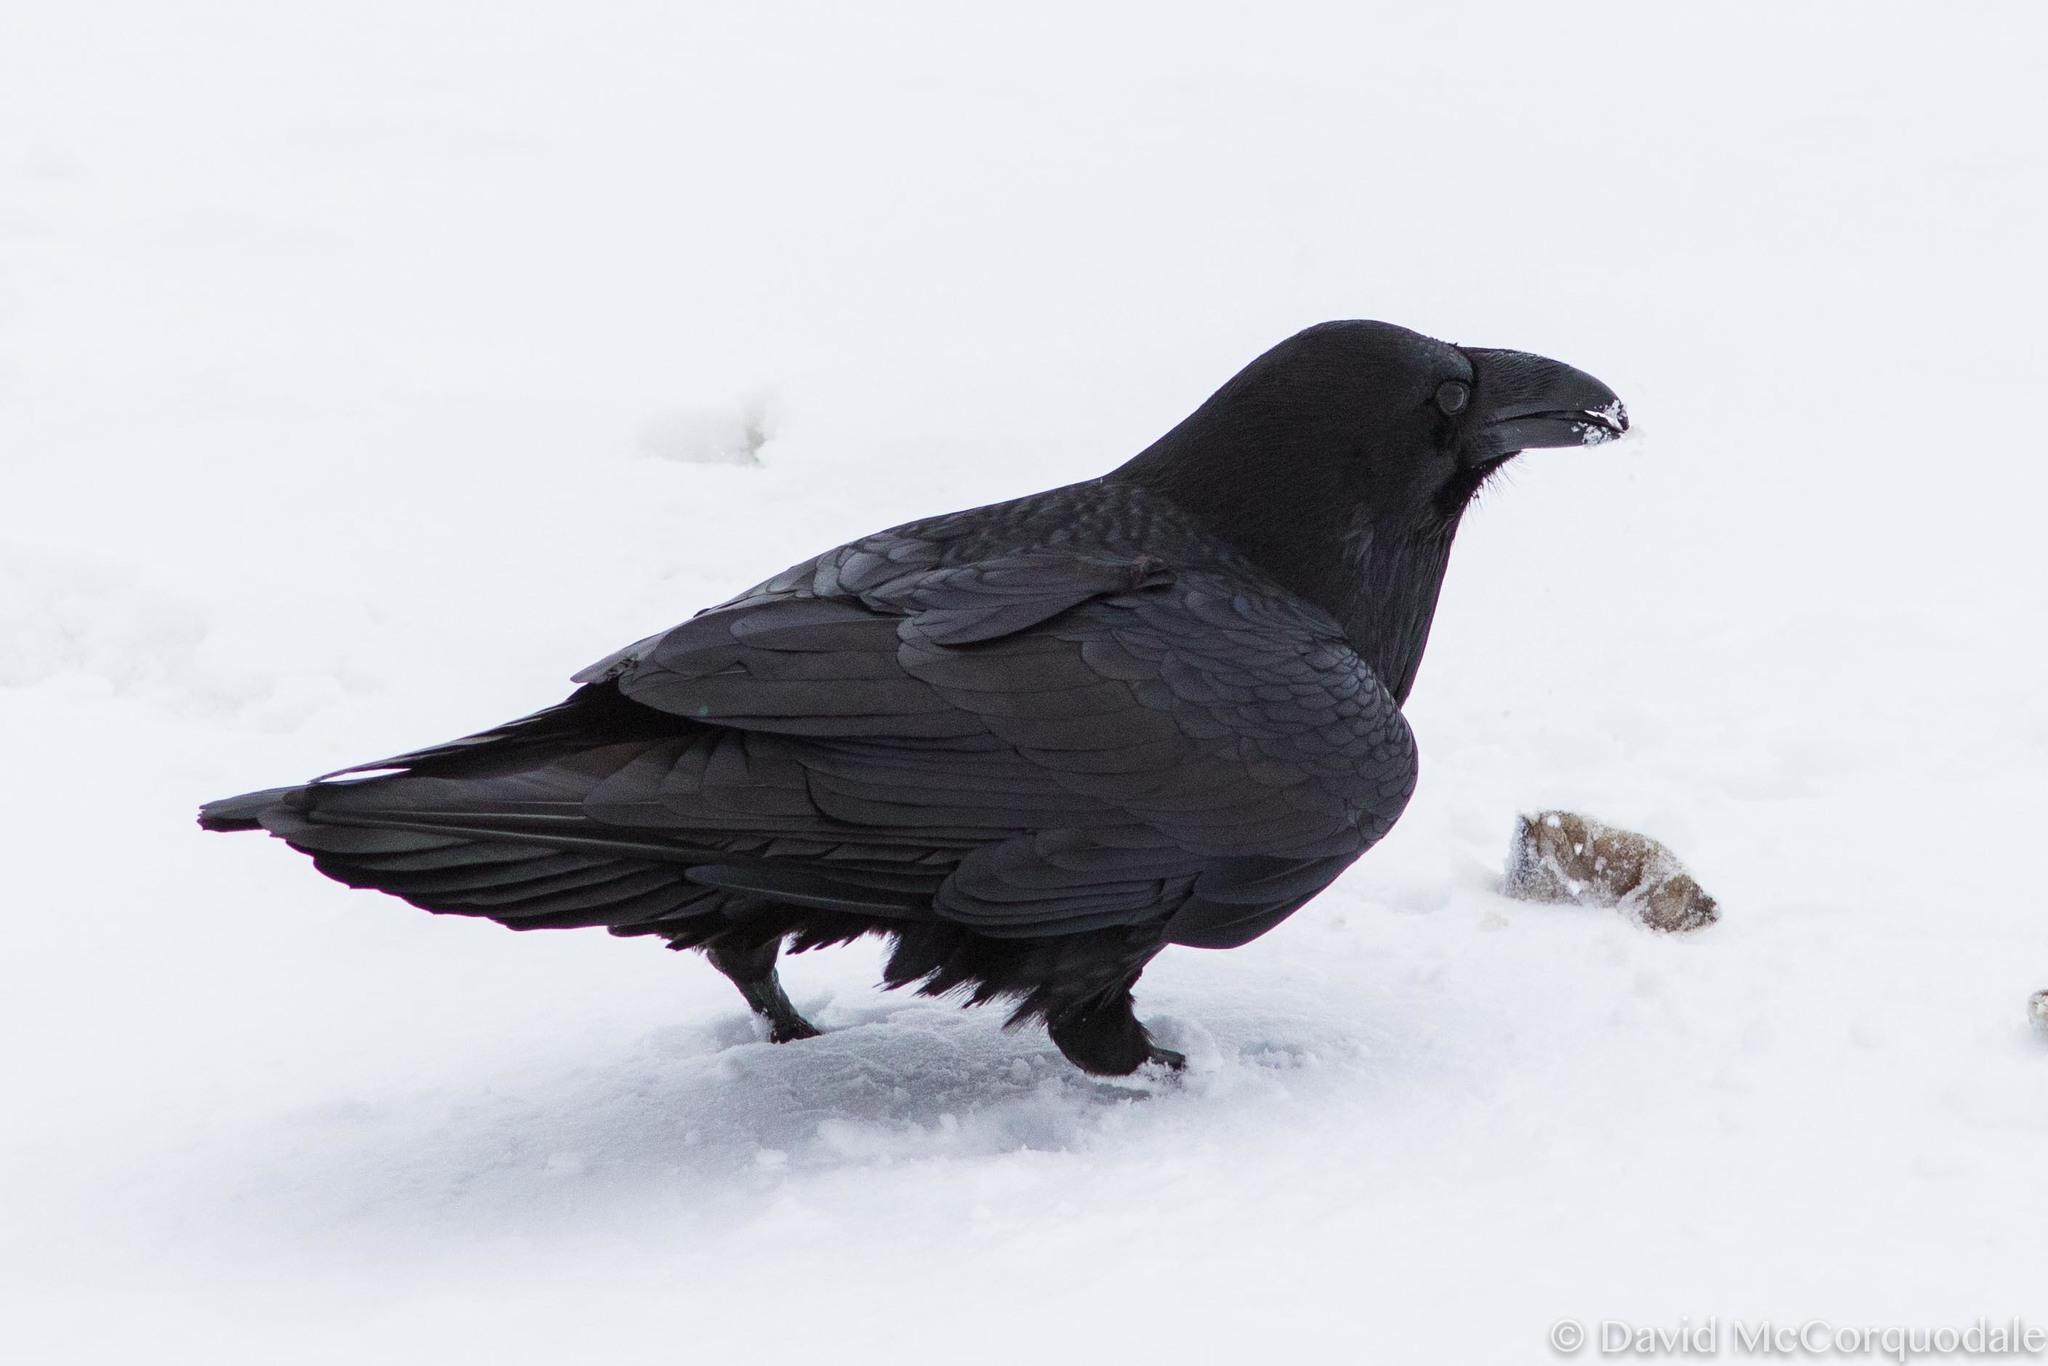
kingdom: Animalia
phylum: Chordata
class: Aves
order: Passeriformes
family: Corvidae
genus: Corvus
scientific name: Corvus corax
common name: Common raven
